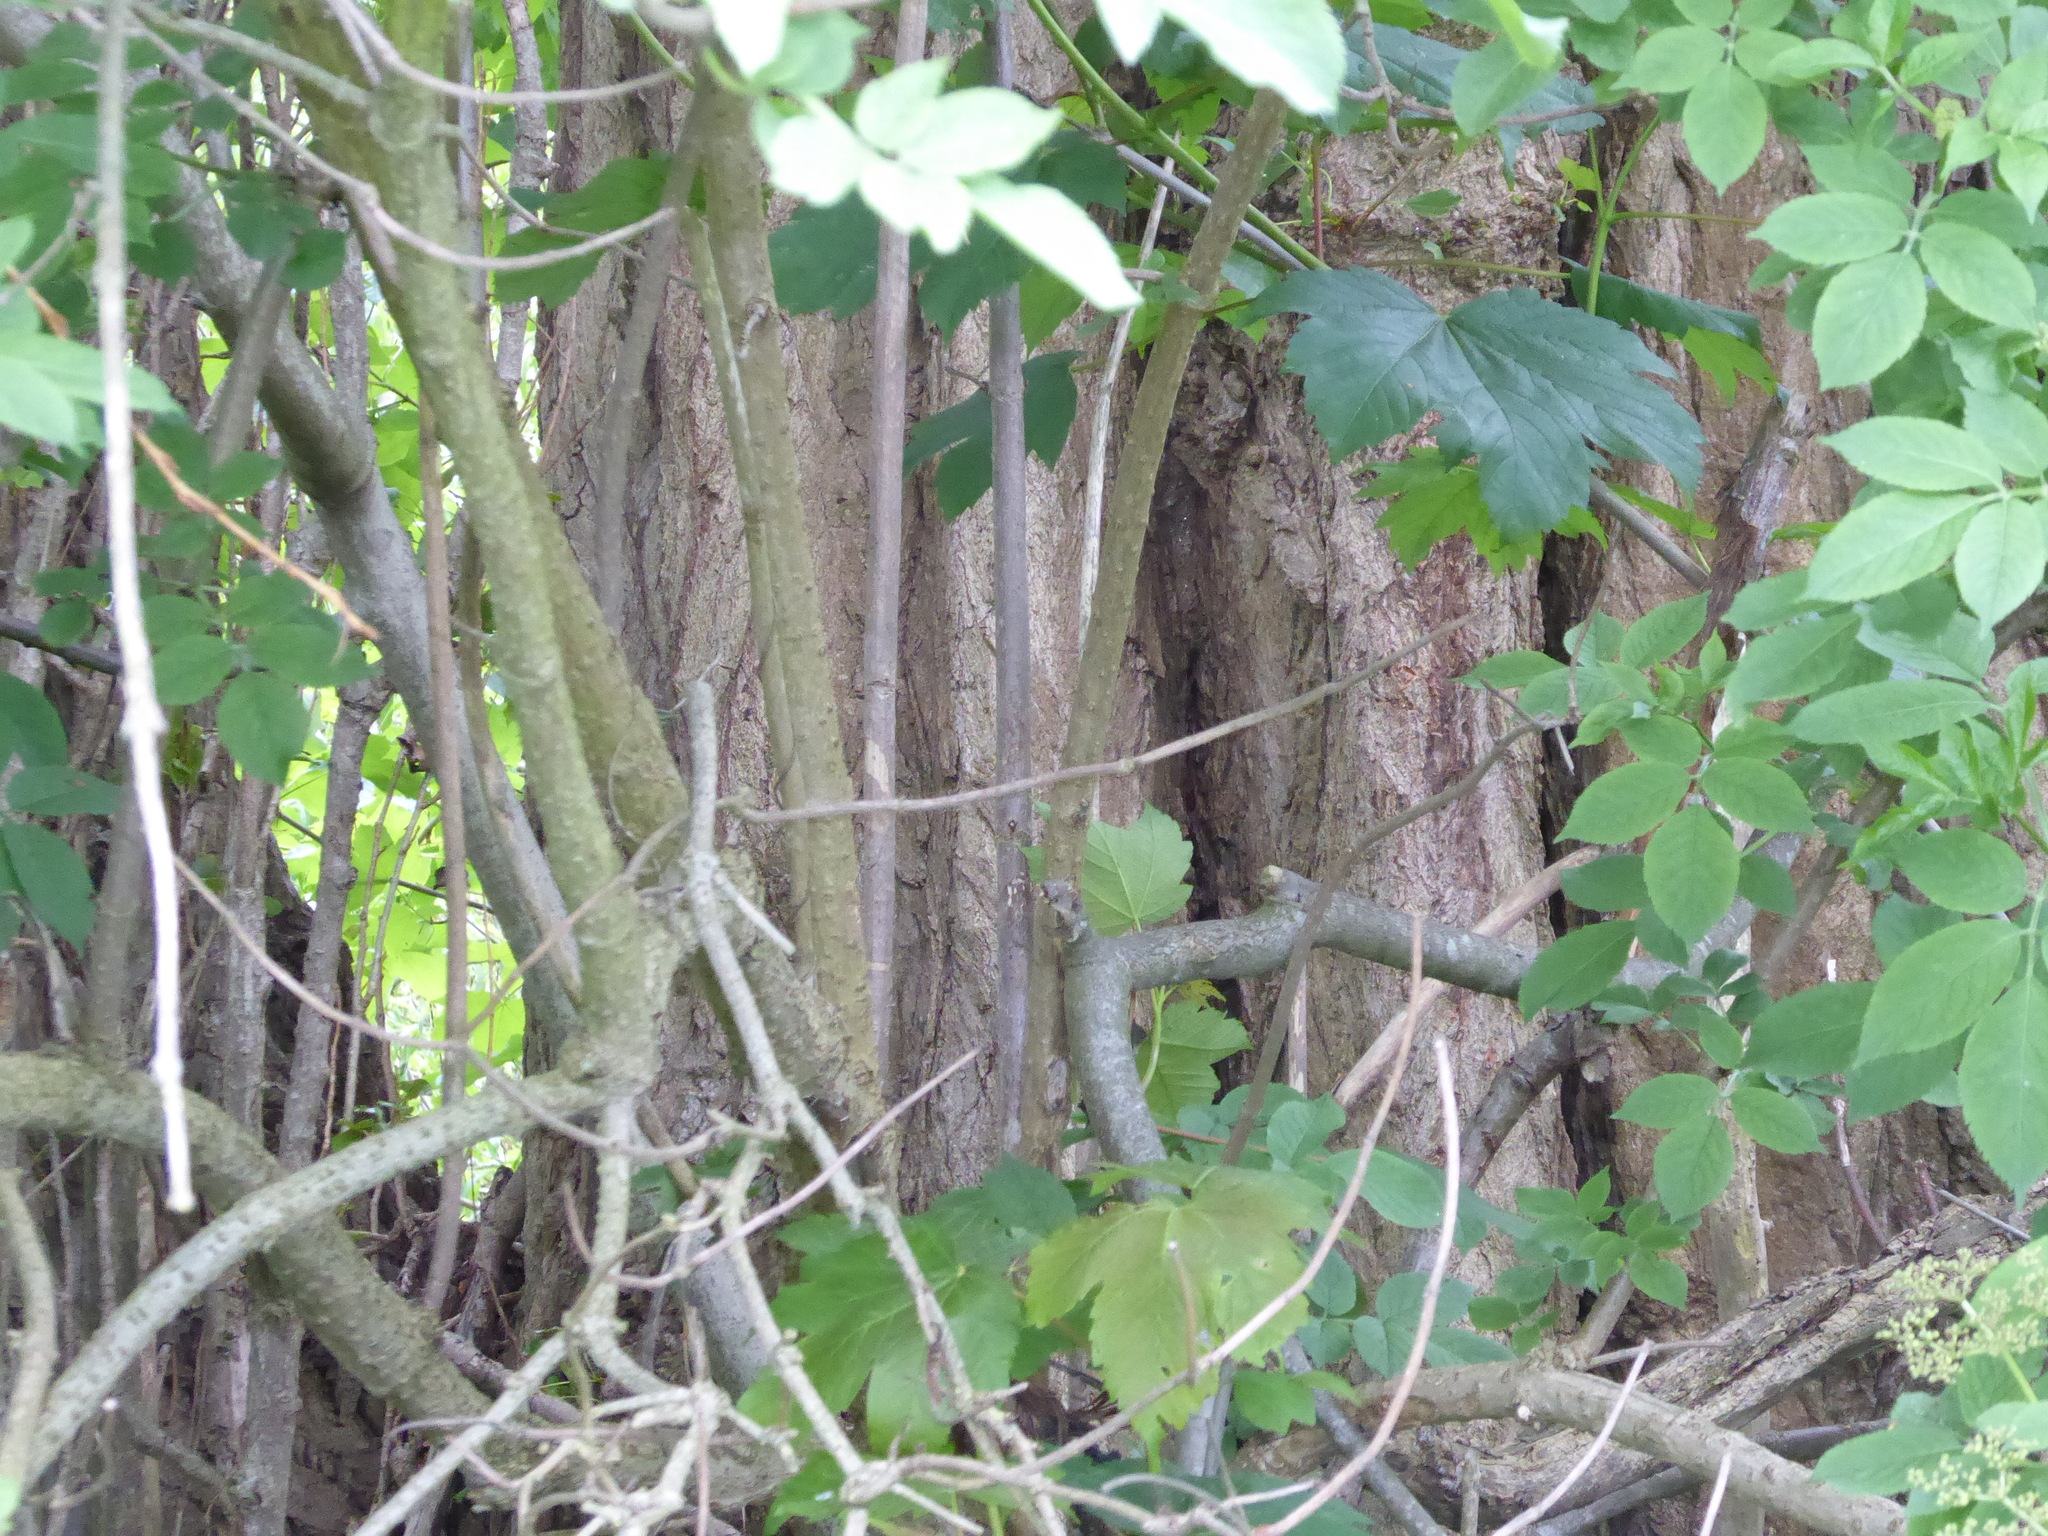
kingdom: Plantae
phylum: Tracheophyta
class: Magnoliopsida
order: Malpighiales
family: Salicaceae
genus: Populus
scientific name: Populus nigra
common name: Black poplar
